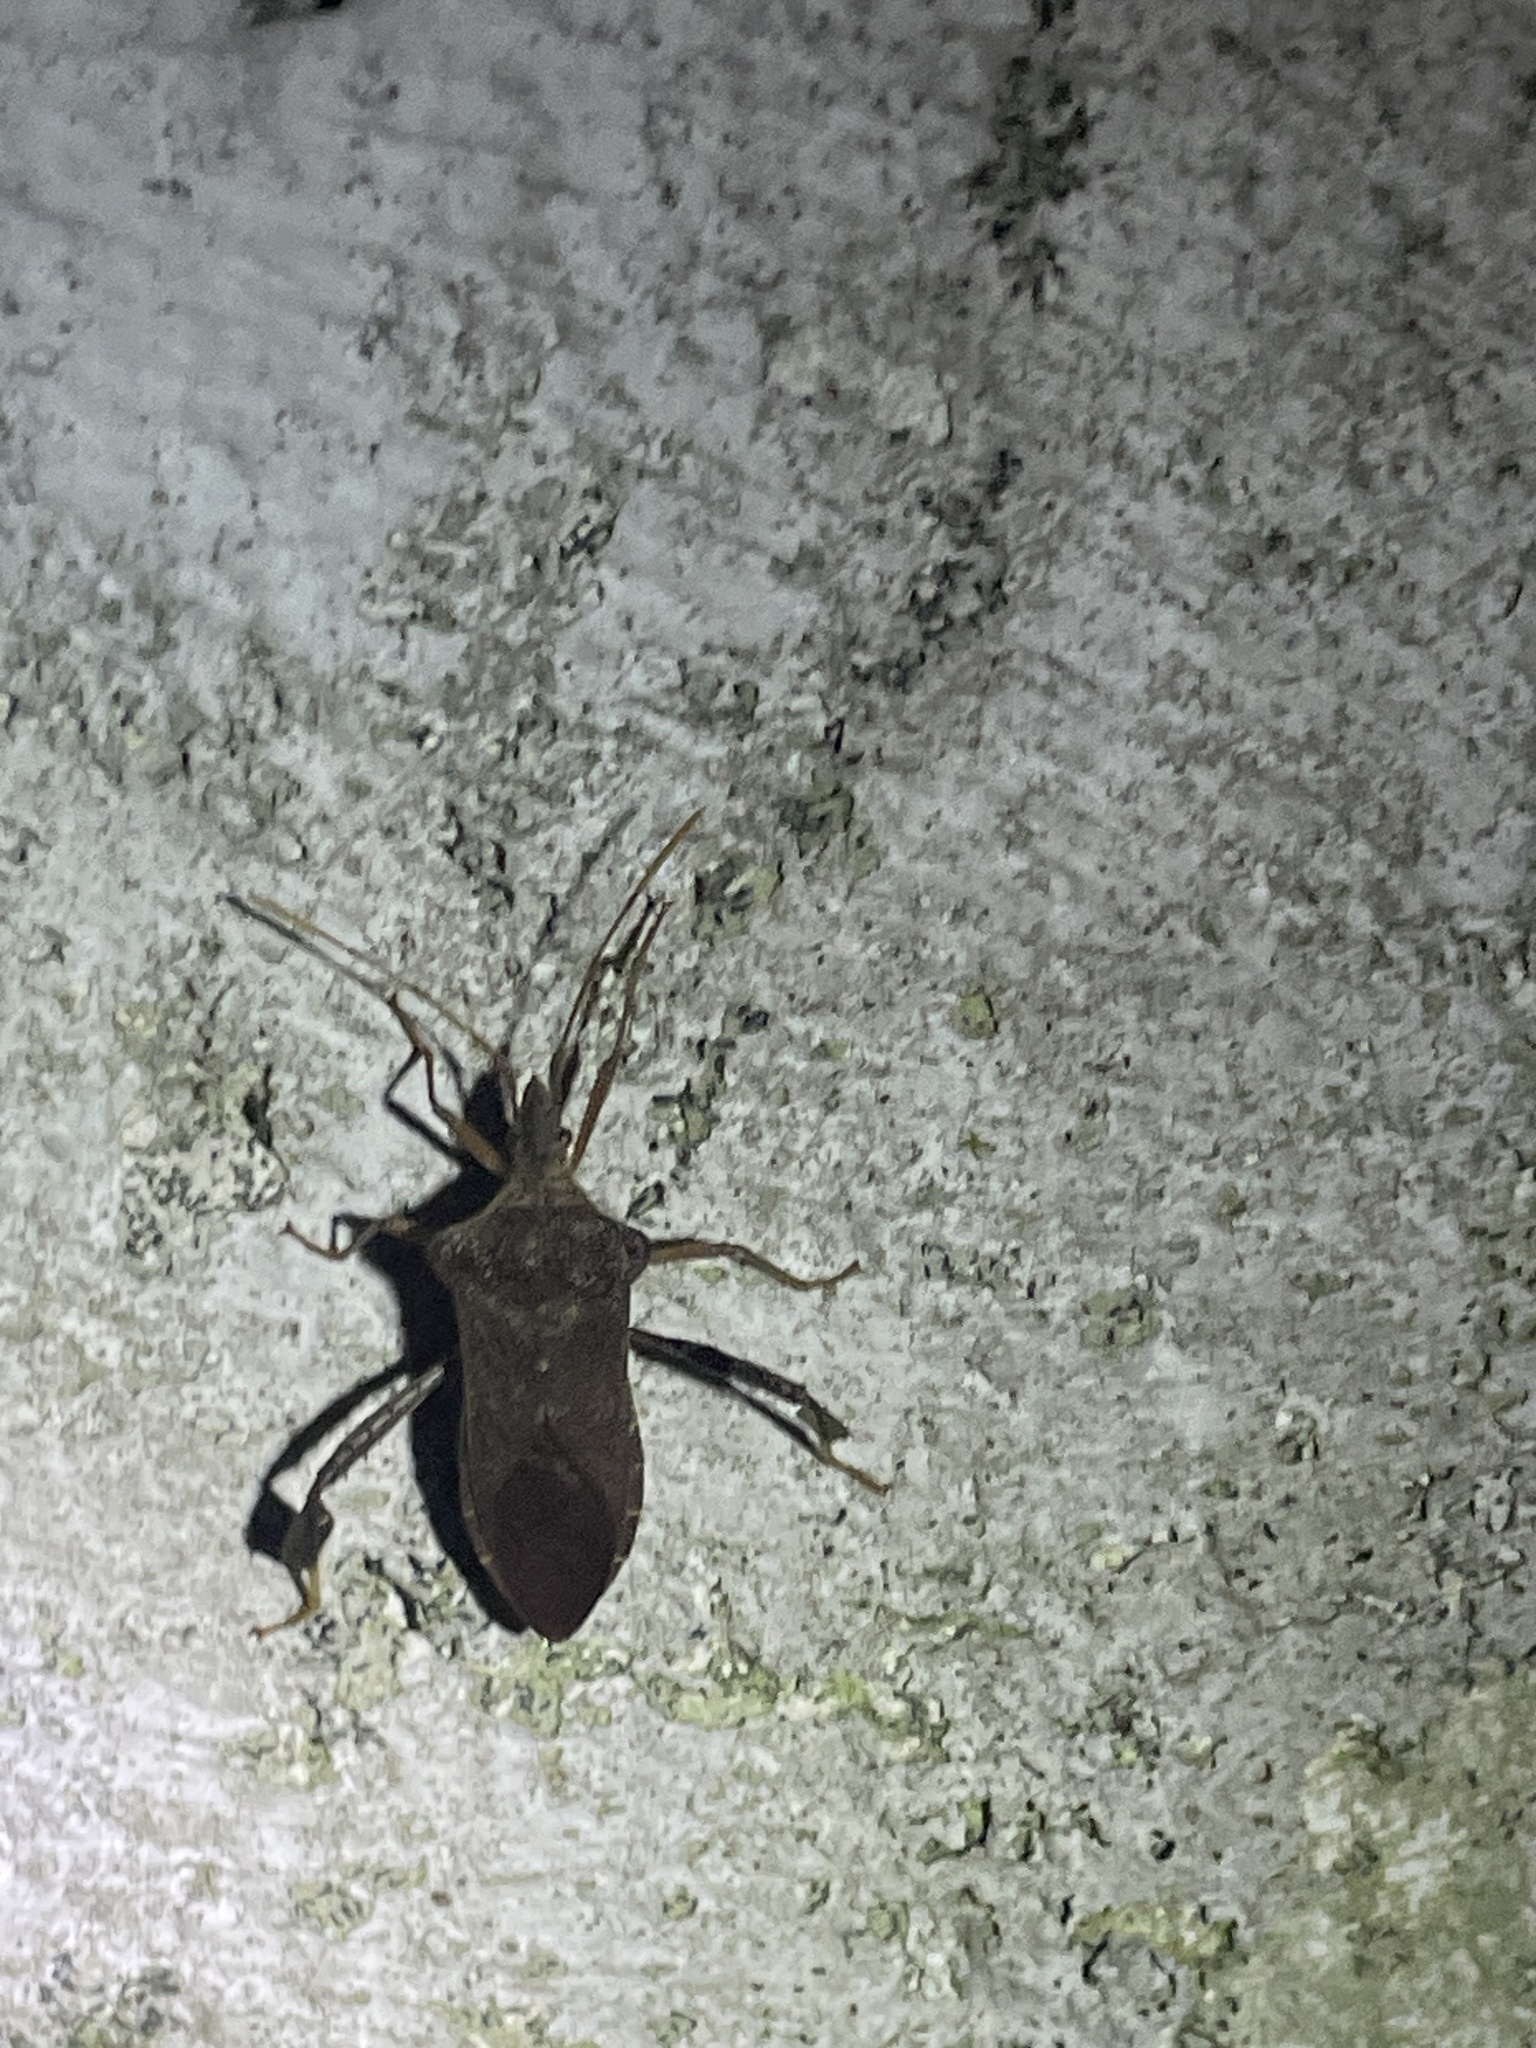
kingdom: Animalia
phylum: Arthropoda
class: Insecta
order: Hemiptera
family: Coreidae
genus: Leptoglossus
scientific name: Leptoglossus fulvicornis
